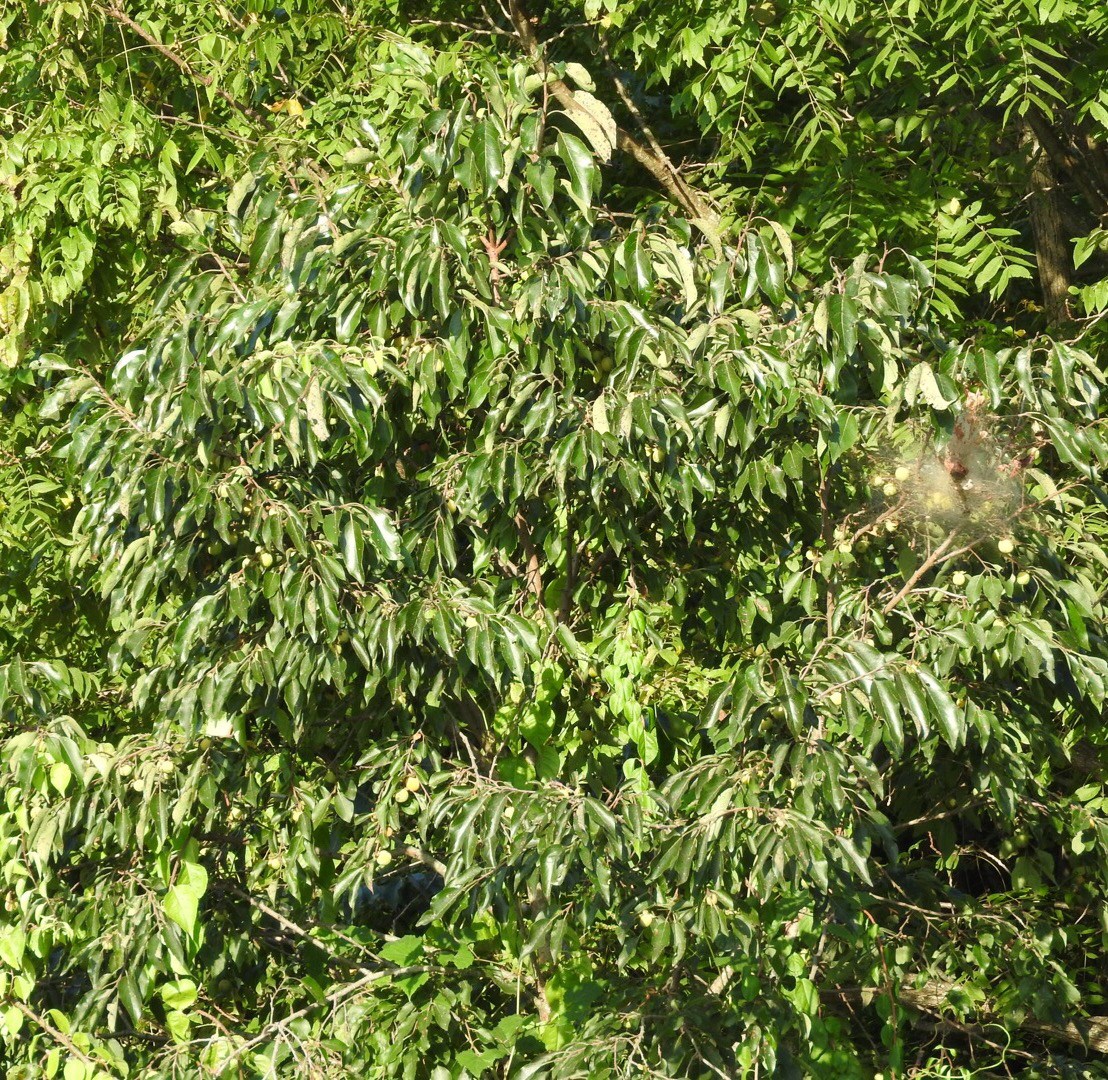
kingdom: Plantae
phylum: Tracheophyta
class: Magnoliopsida
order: Ericales
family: Ebenaceae
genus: Diospyros
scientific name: Diospyros virginiana
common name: Persimmon
